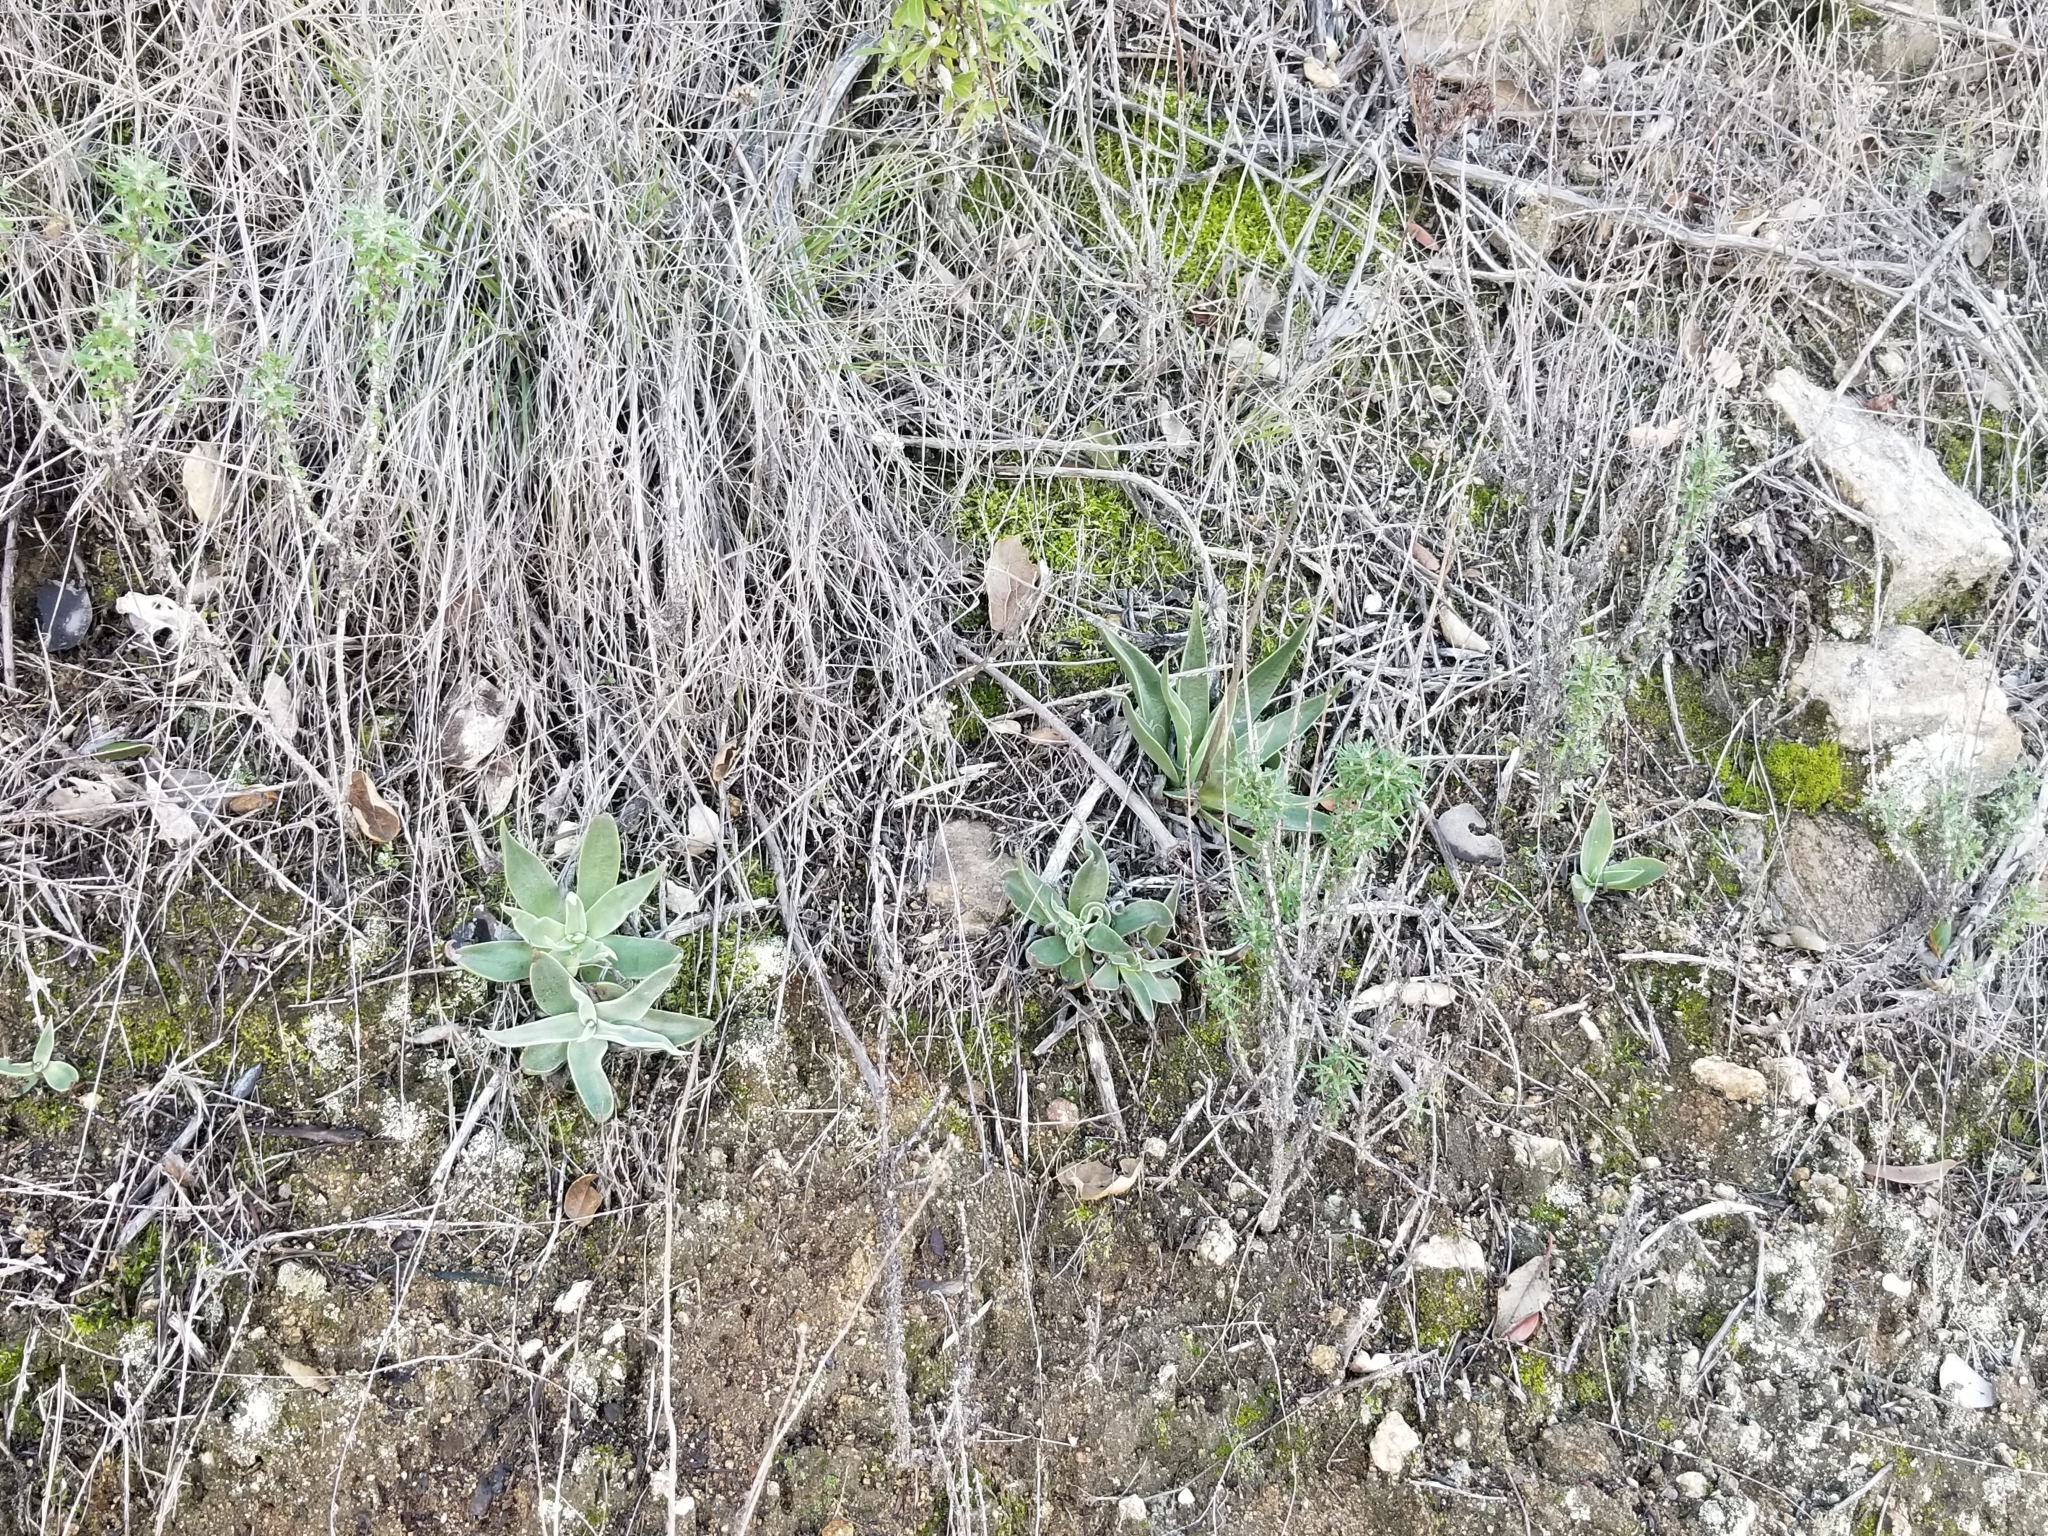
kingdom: Plantae
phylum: Tracheophyta
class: Magnoliopsida
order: Saxifragales
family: Crassulaceae
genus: Dudleya
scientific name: Dudleya lanceolata
